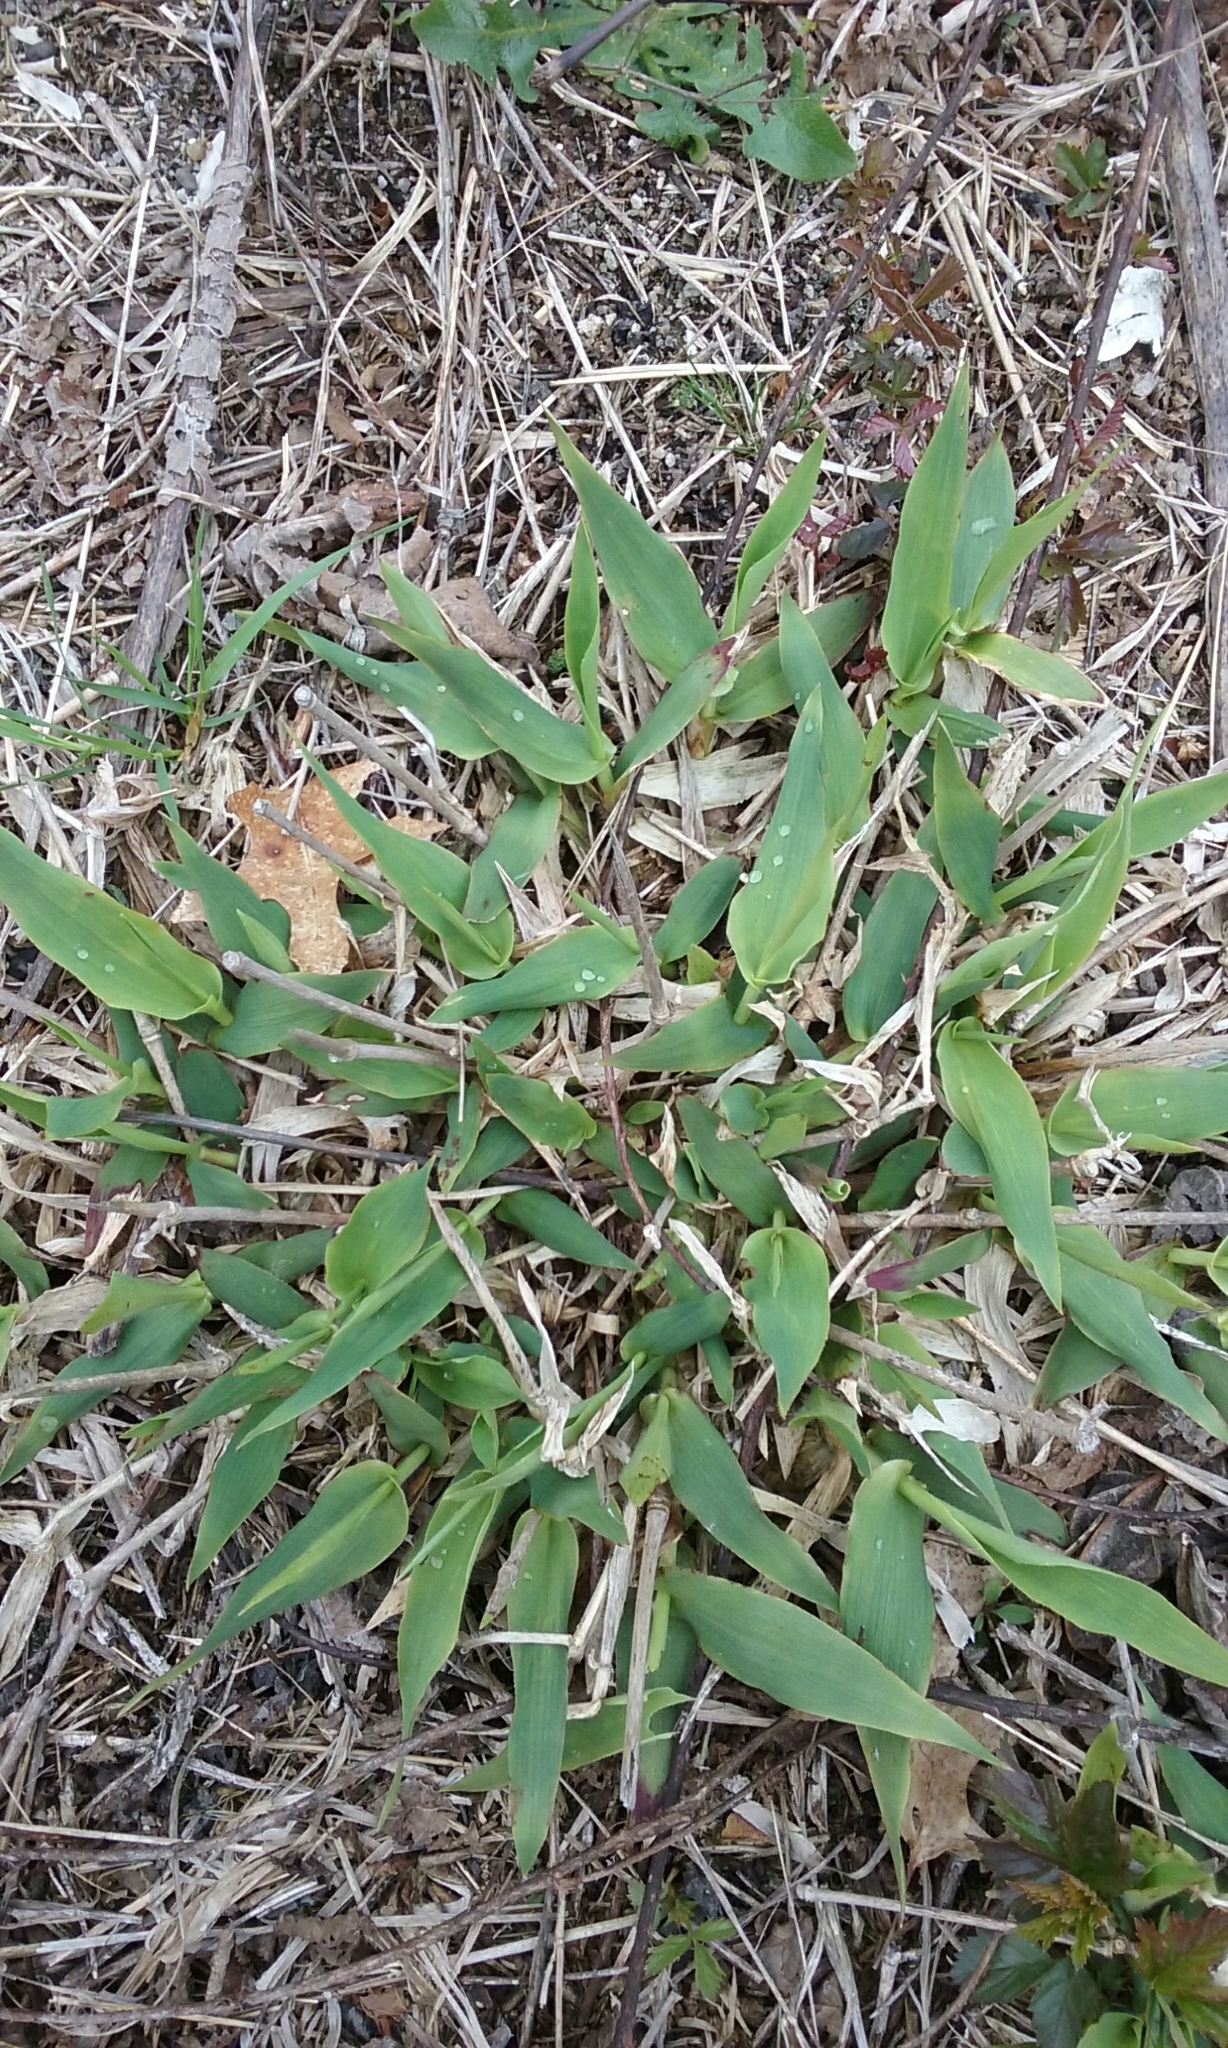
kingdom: Plantae
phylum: Tracheophyta
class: Liliopsida
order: Poales
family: Poaceae
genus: Dichanthelium
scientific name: Dichanthelium
